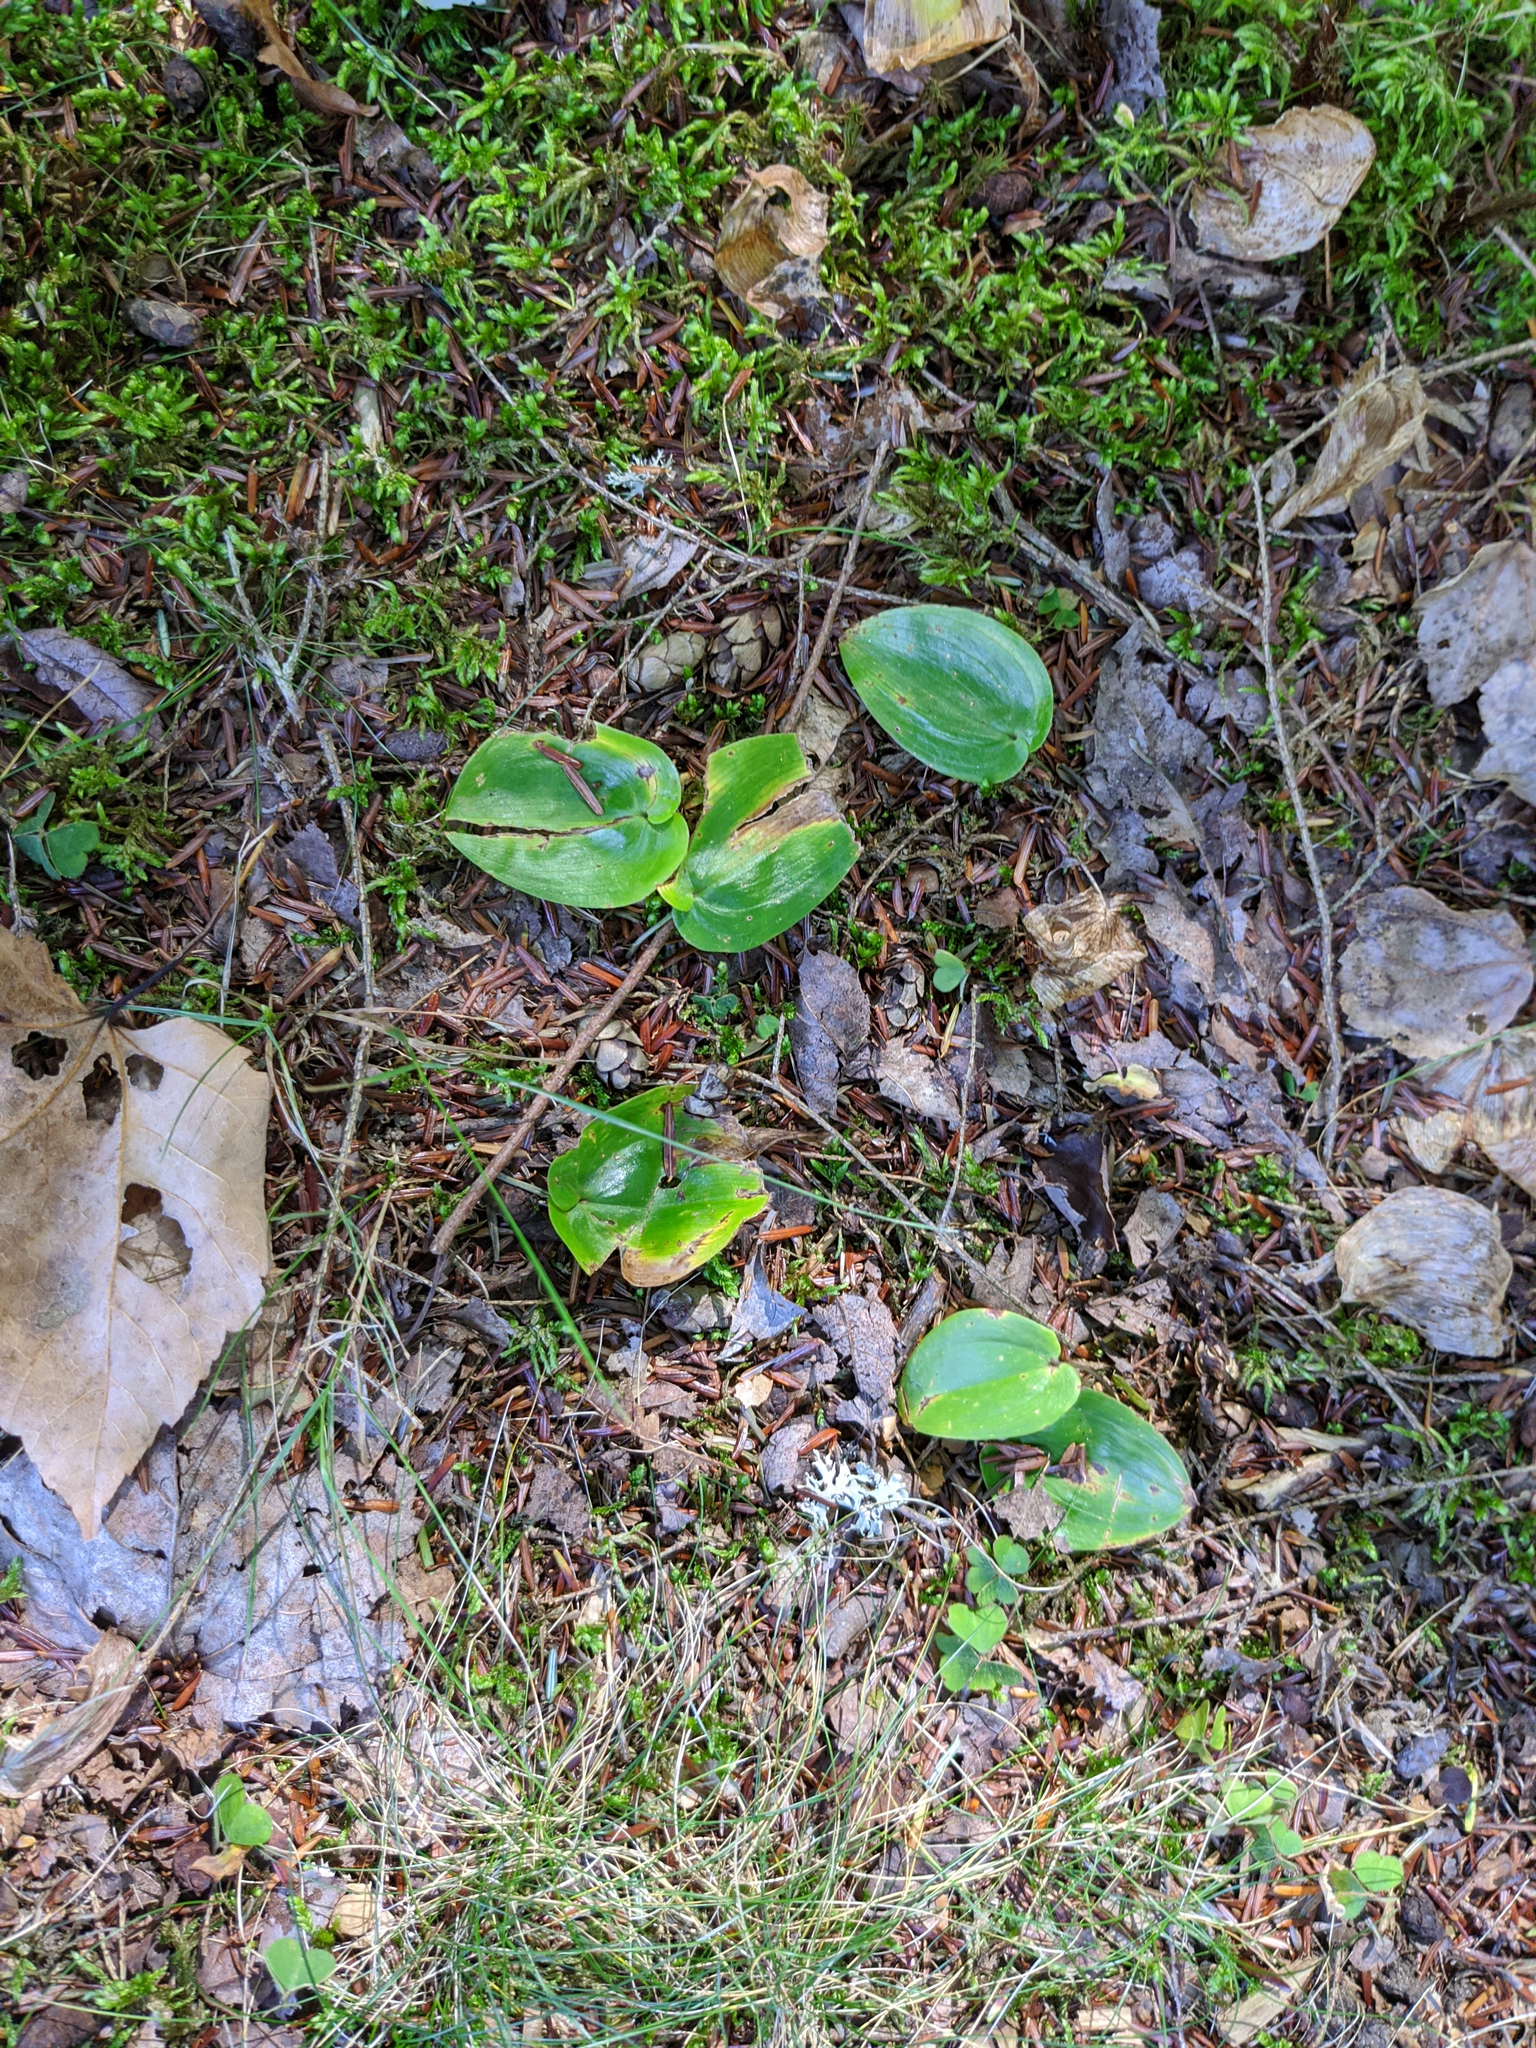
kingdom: Plantae
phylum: Tracheophyta
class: Liliopsida
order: Asparagales
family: Asparagaceae
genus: Maianthemum
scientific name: Maianthemum canadense
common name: False lily-of-the-valley
